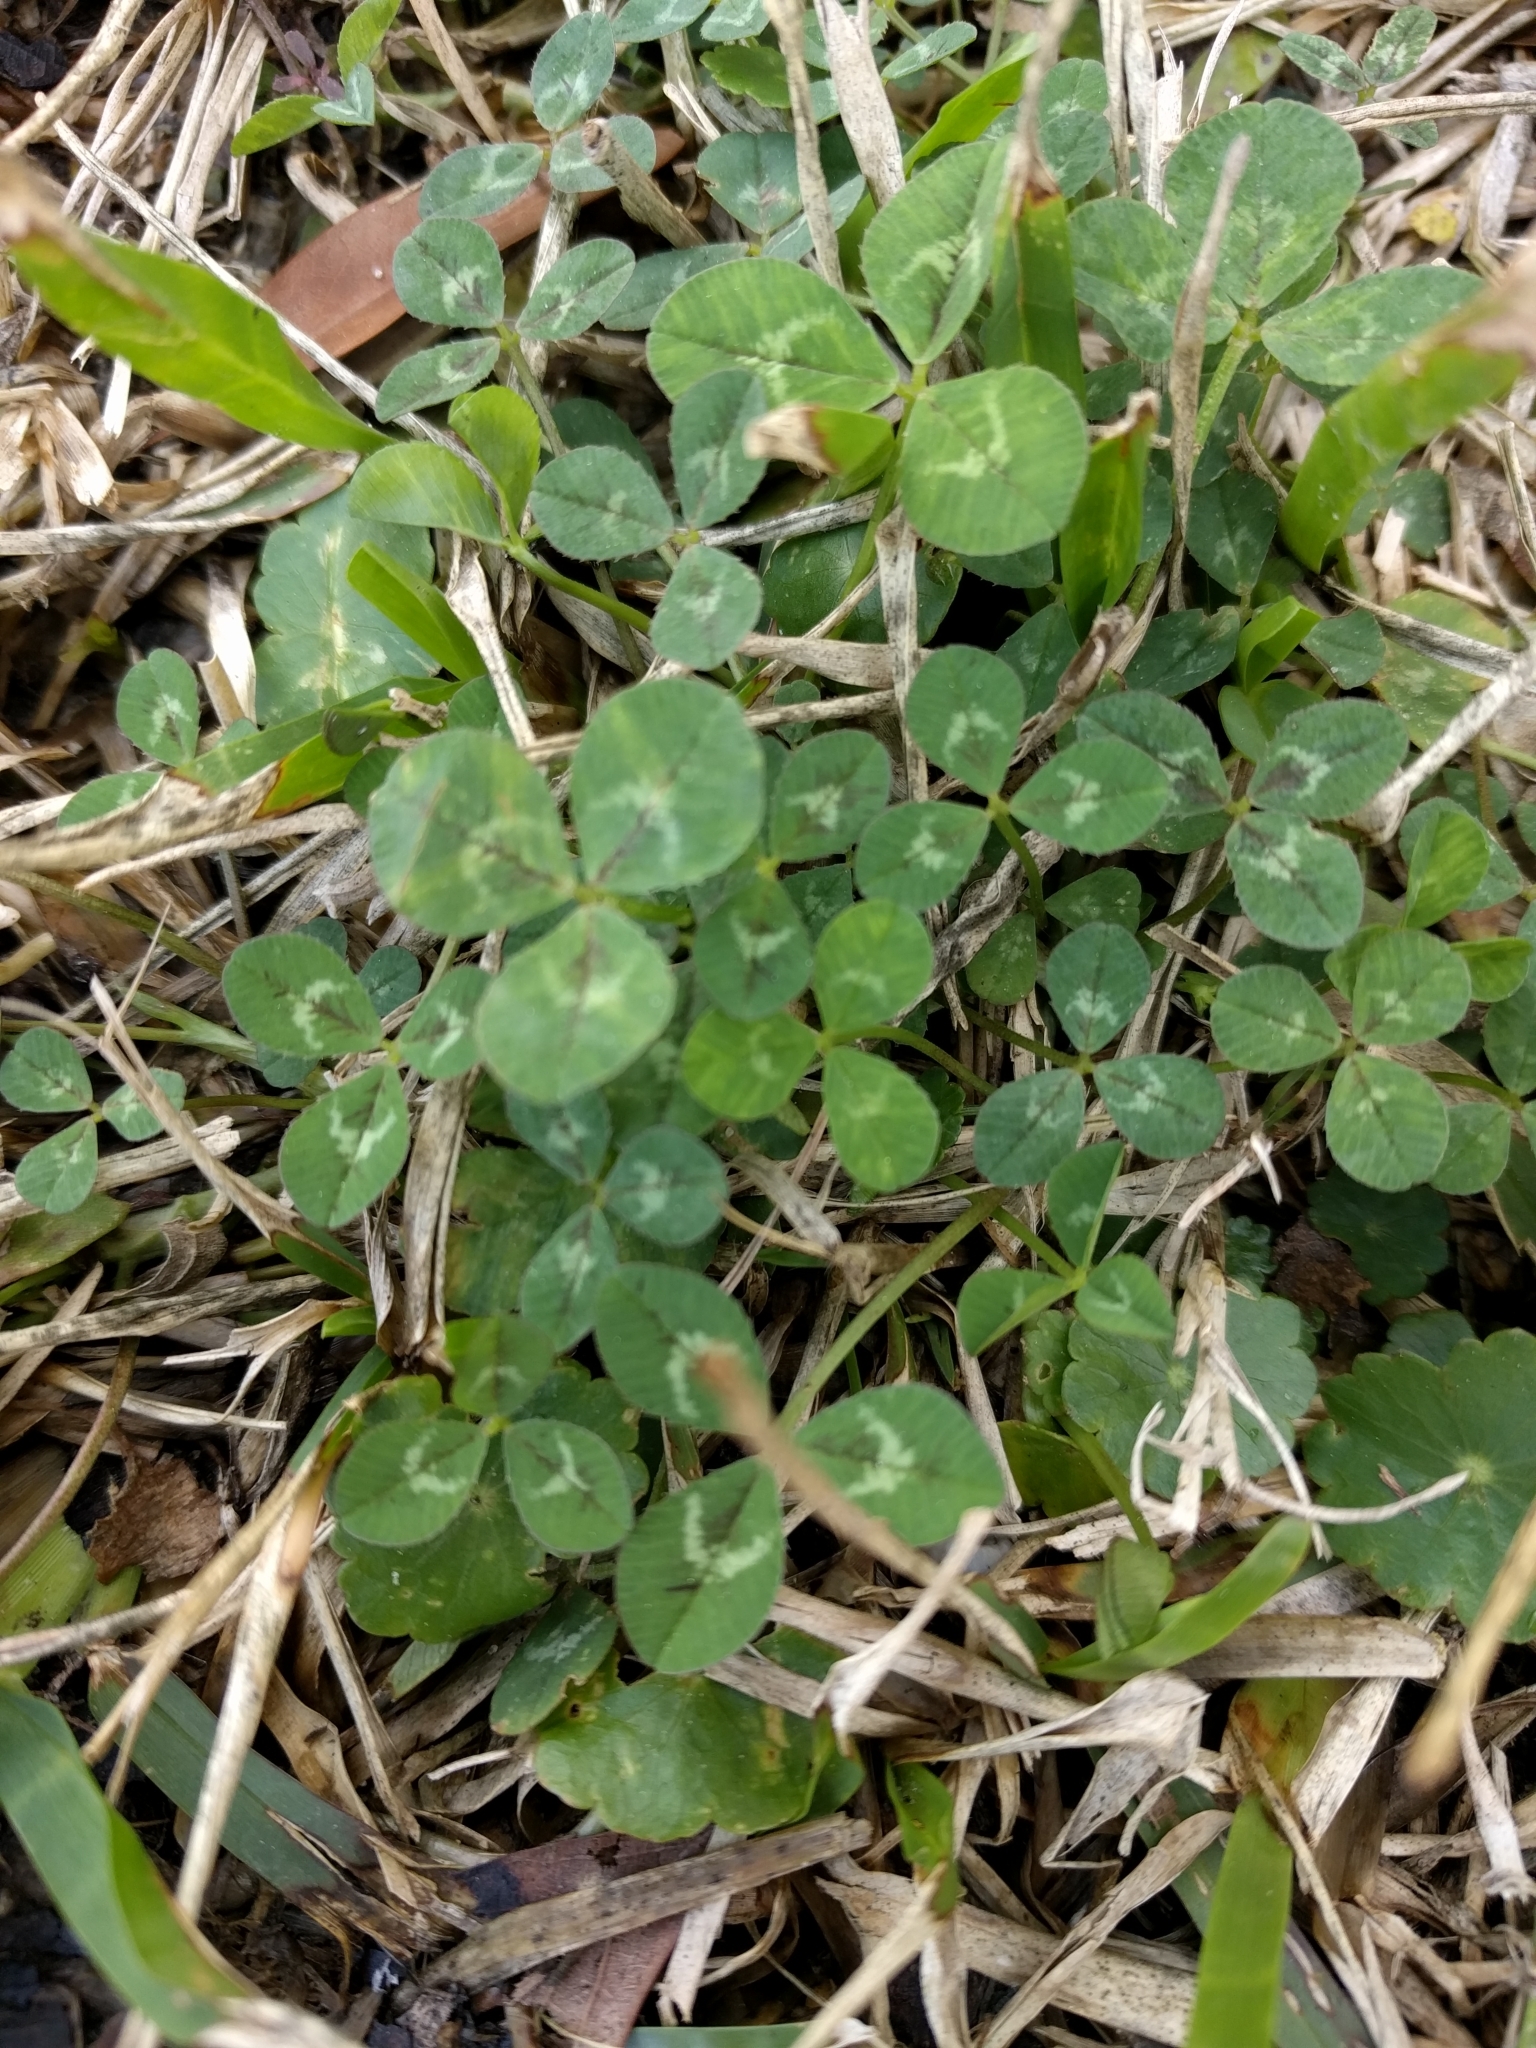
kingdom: Plantae
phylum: Tracheophyta
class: Magnoliopsida
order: Fabales
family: Fabaceae
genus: Trifolium
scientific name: Trifolium repens
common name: White clover
